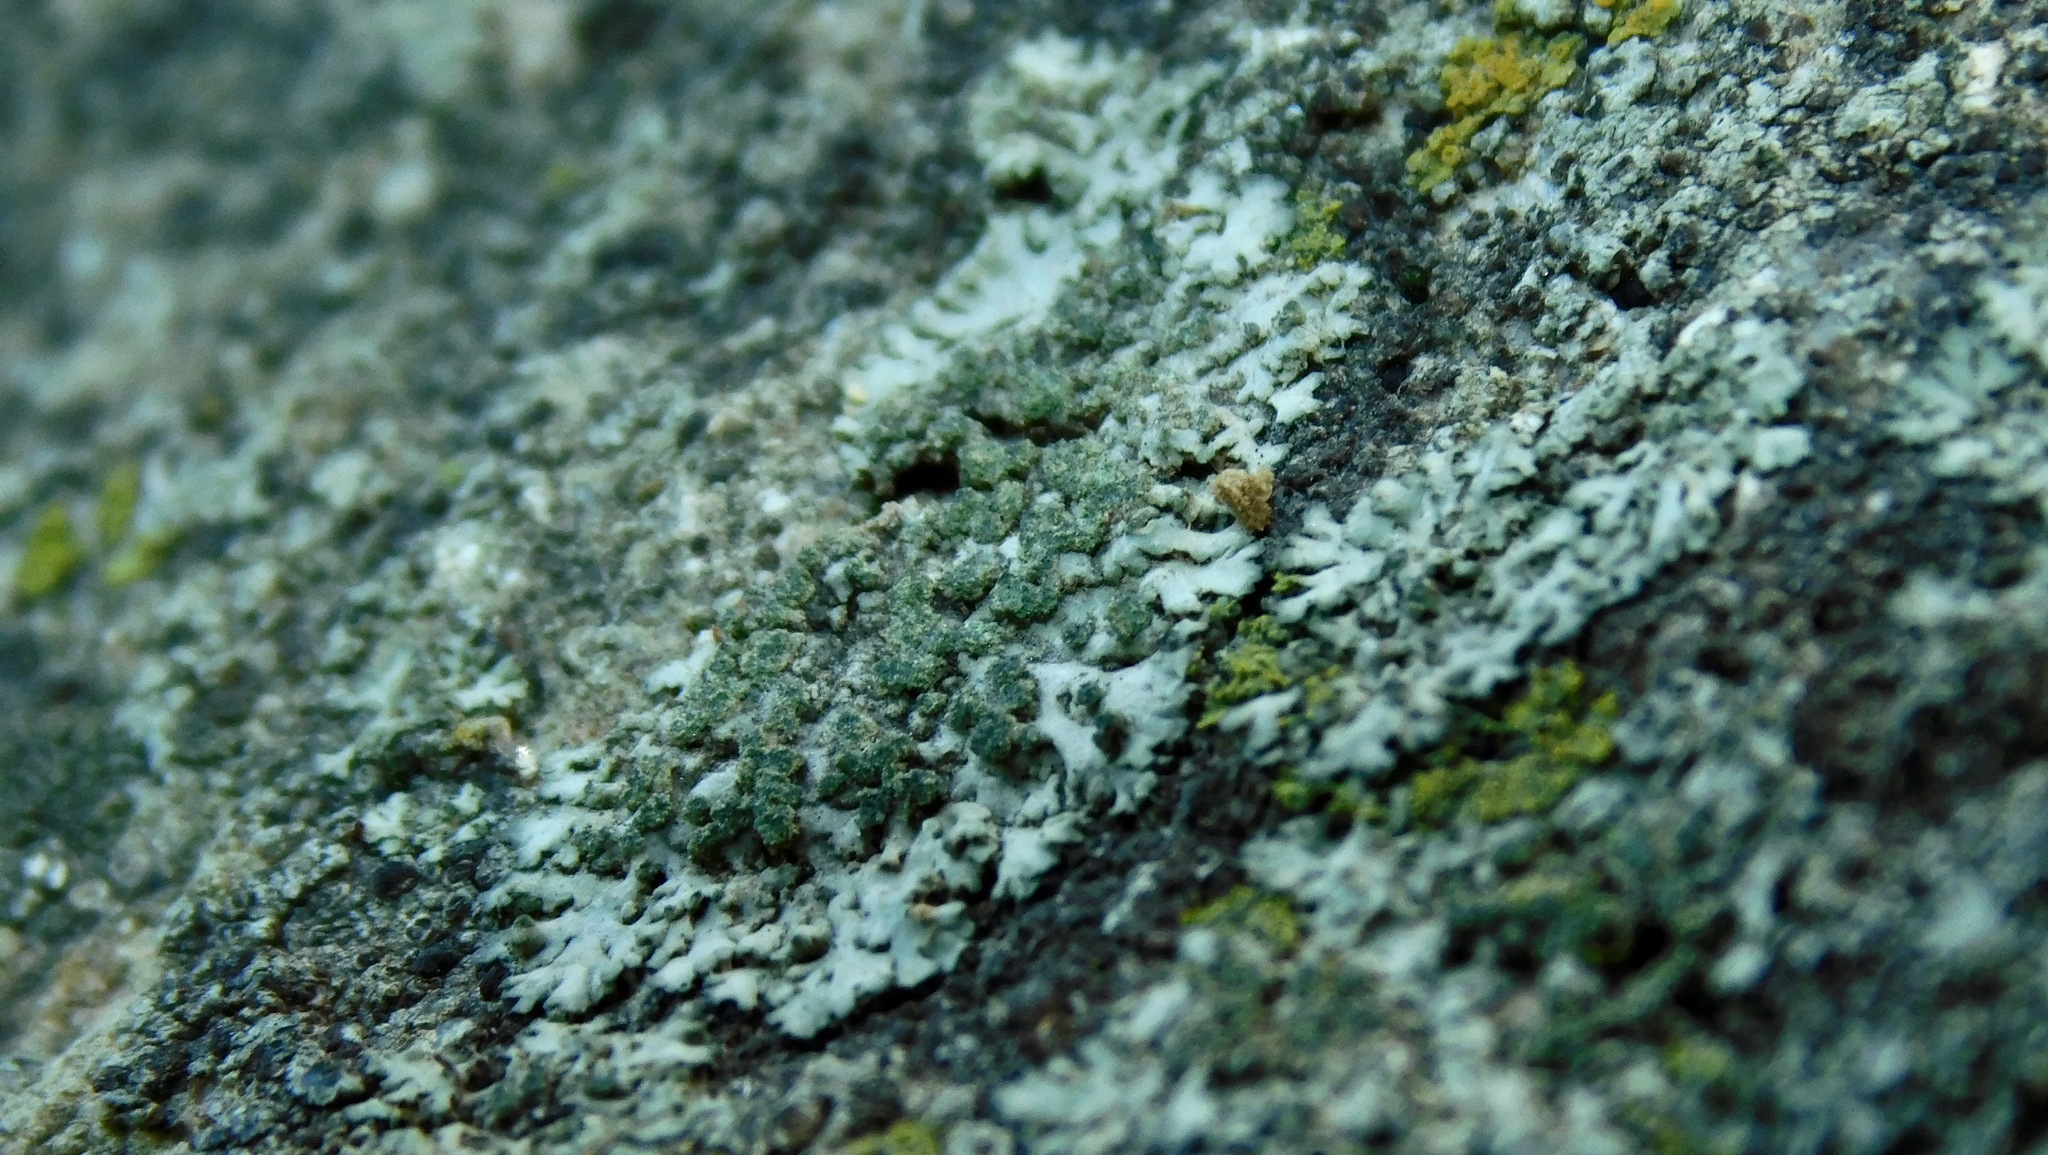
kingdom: Fungi
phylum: Ascomycota
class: Lecanoromycetes
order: Caliciales
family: Physciaceae
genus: Phaeophyscia
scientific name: Phaeophyscia sciastra
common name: Dark shadow lichen
